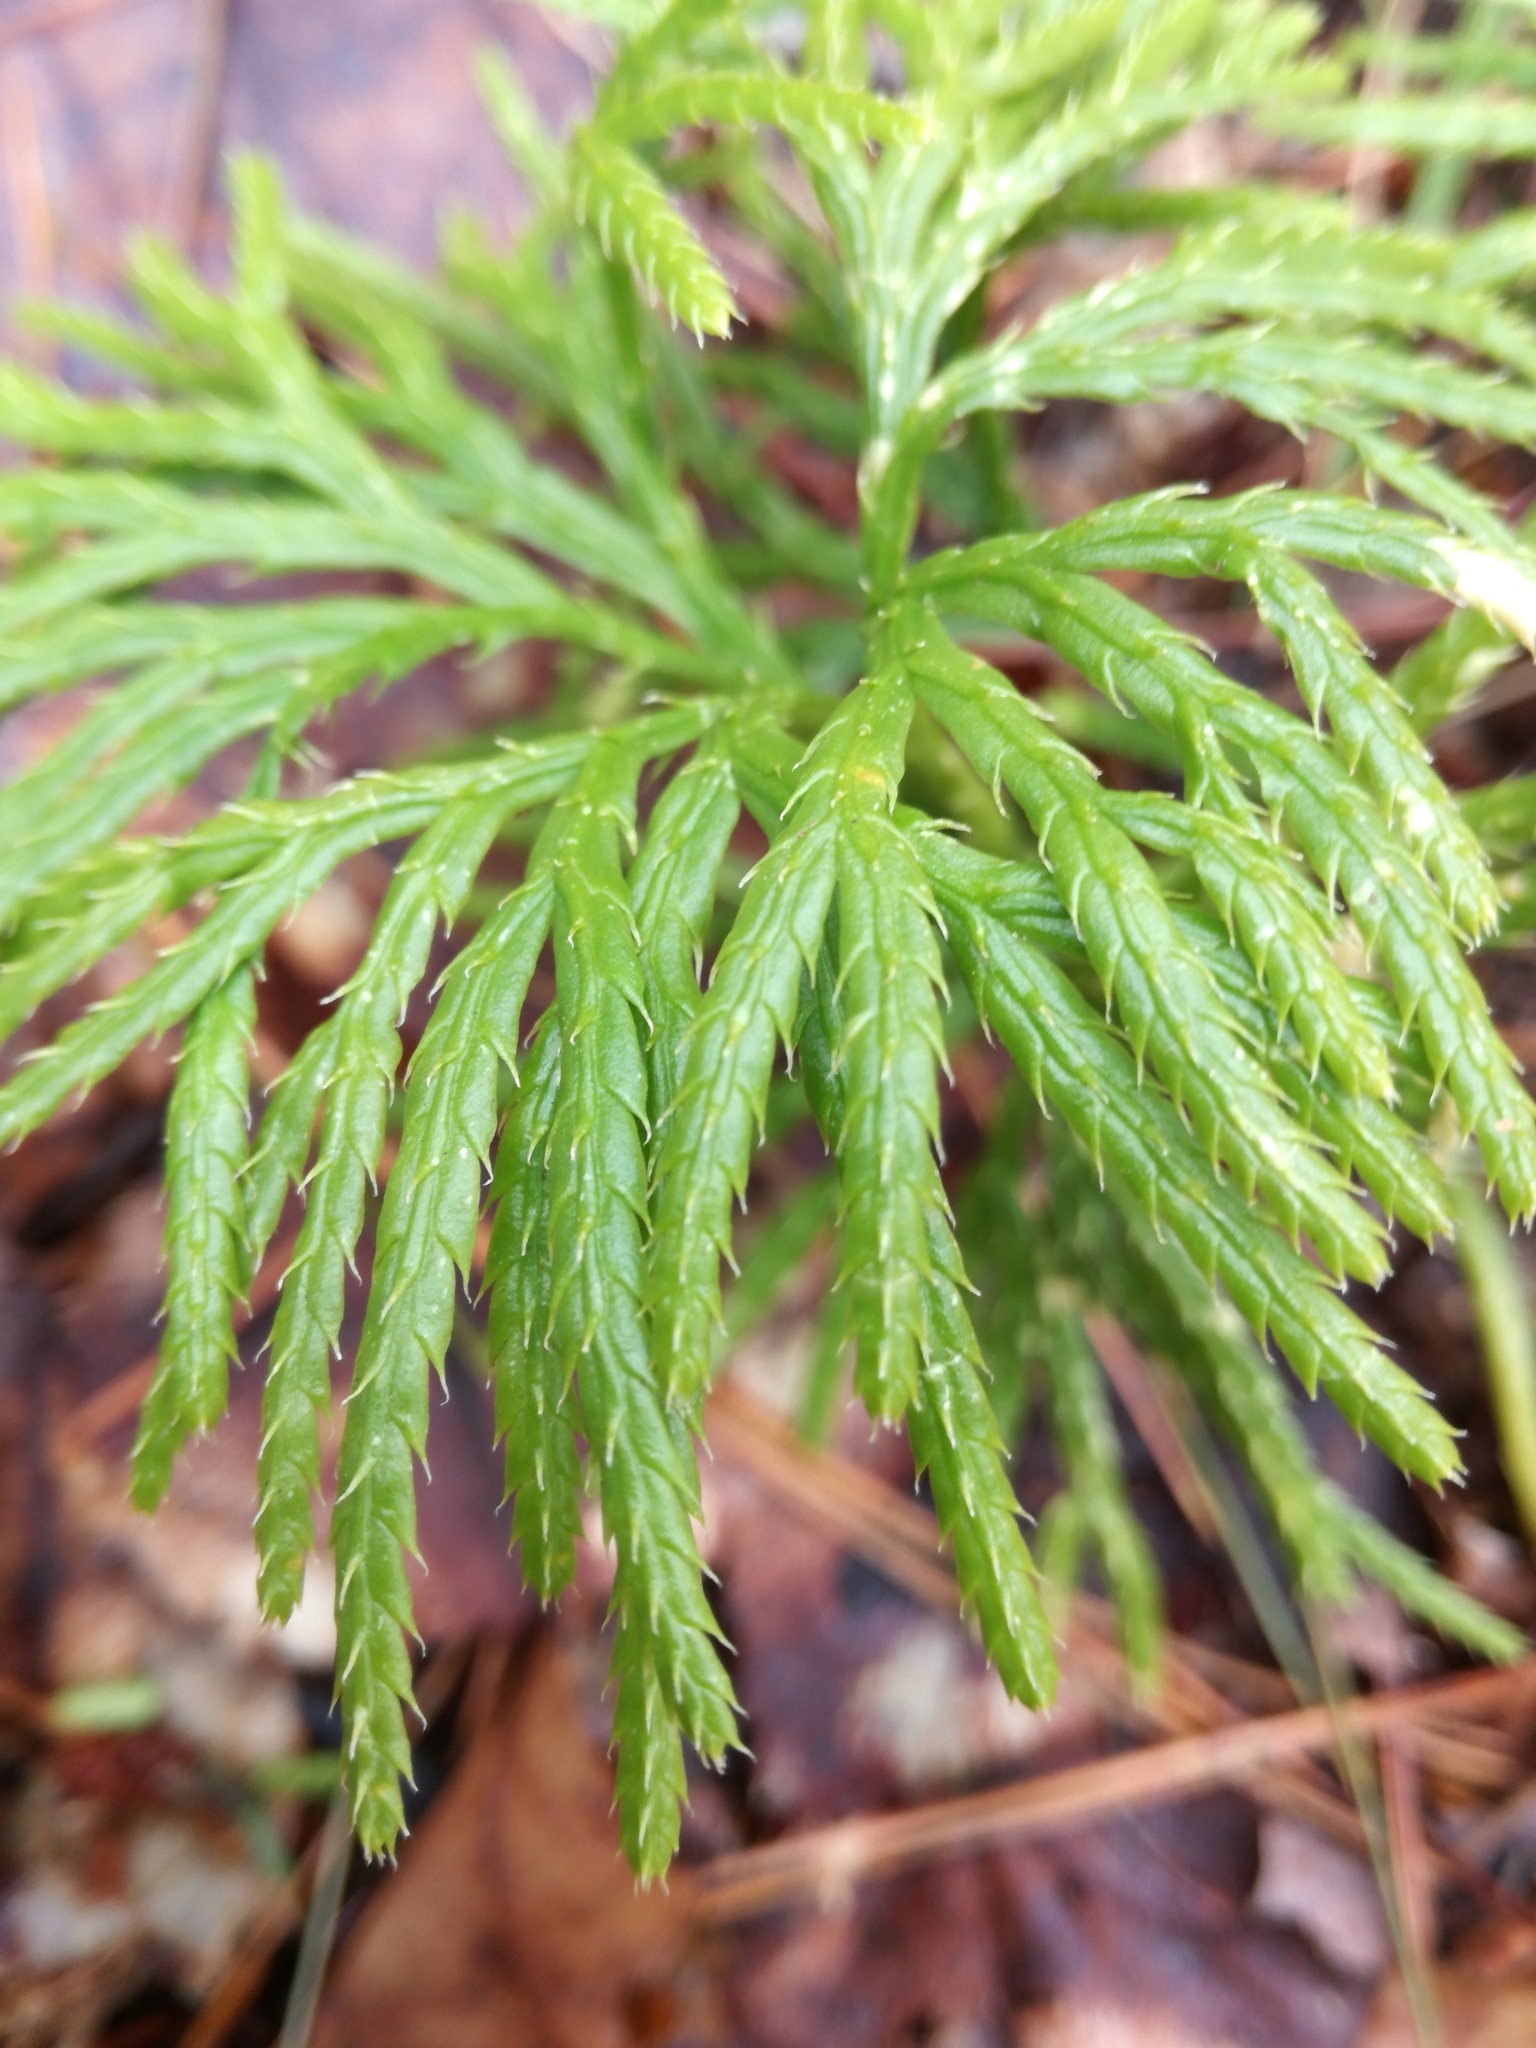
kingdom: Plantae
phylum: Tracheophyta
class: Lycopodiopsida
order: Lycopodiales
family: Lycopodiaceae
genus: Diphasiastrum
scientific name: Diphasiastrum digitatum
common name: Southern running-pine
